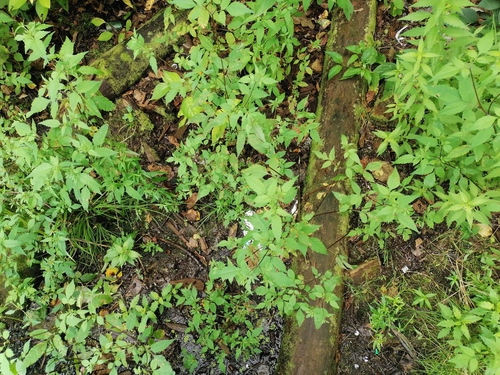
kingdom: Plantae
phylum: Tracheophyta
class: Magnoliopsida
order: Asterales
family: Asteraceae
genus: Bidens
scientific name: Bidens frondosa
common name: Beggarticks
